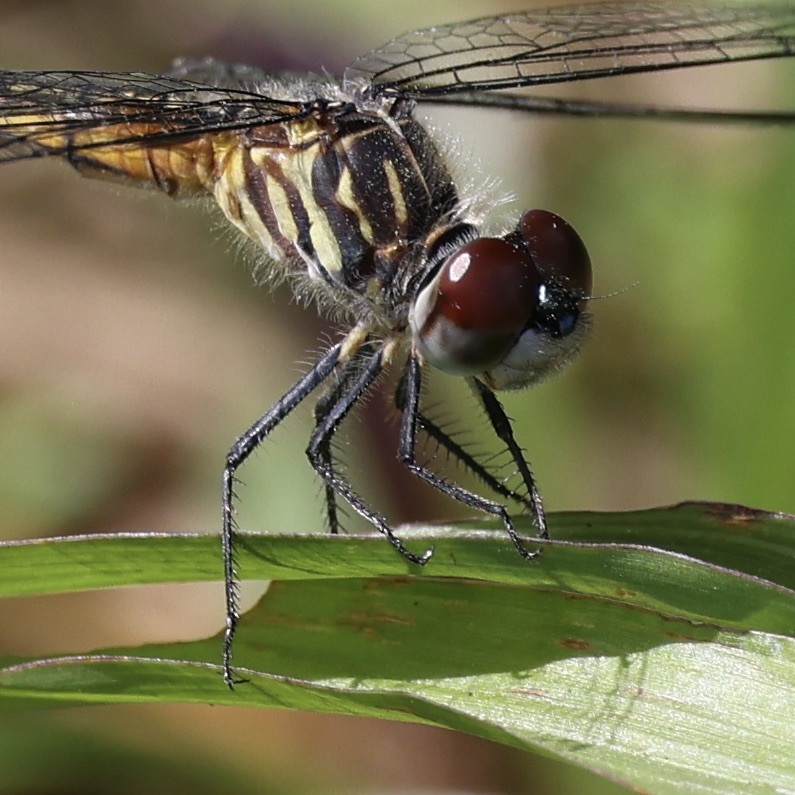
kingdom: Animalia
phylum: Arthropoda
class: Insecta
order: Odonata
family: Libellulidae
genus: Pachydiplax
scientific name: Pachydiplax longipennis
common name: Blue dasher
